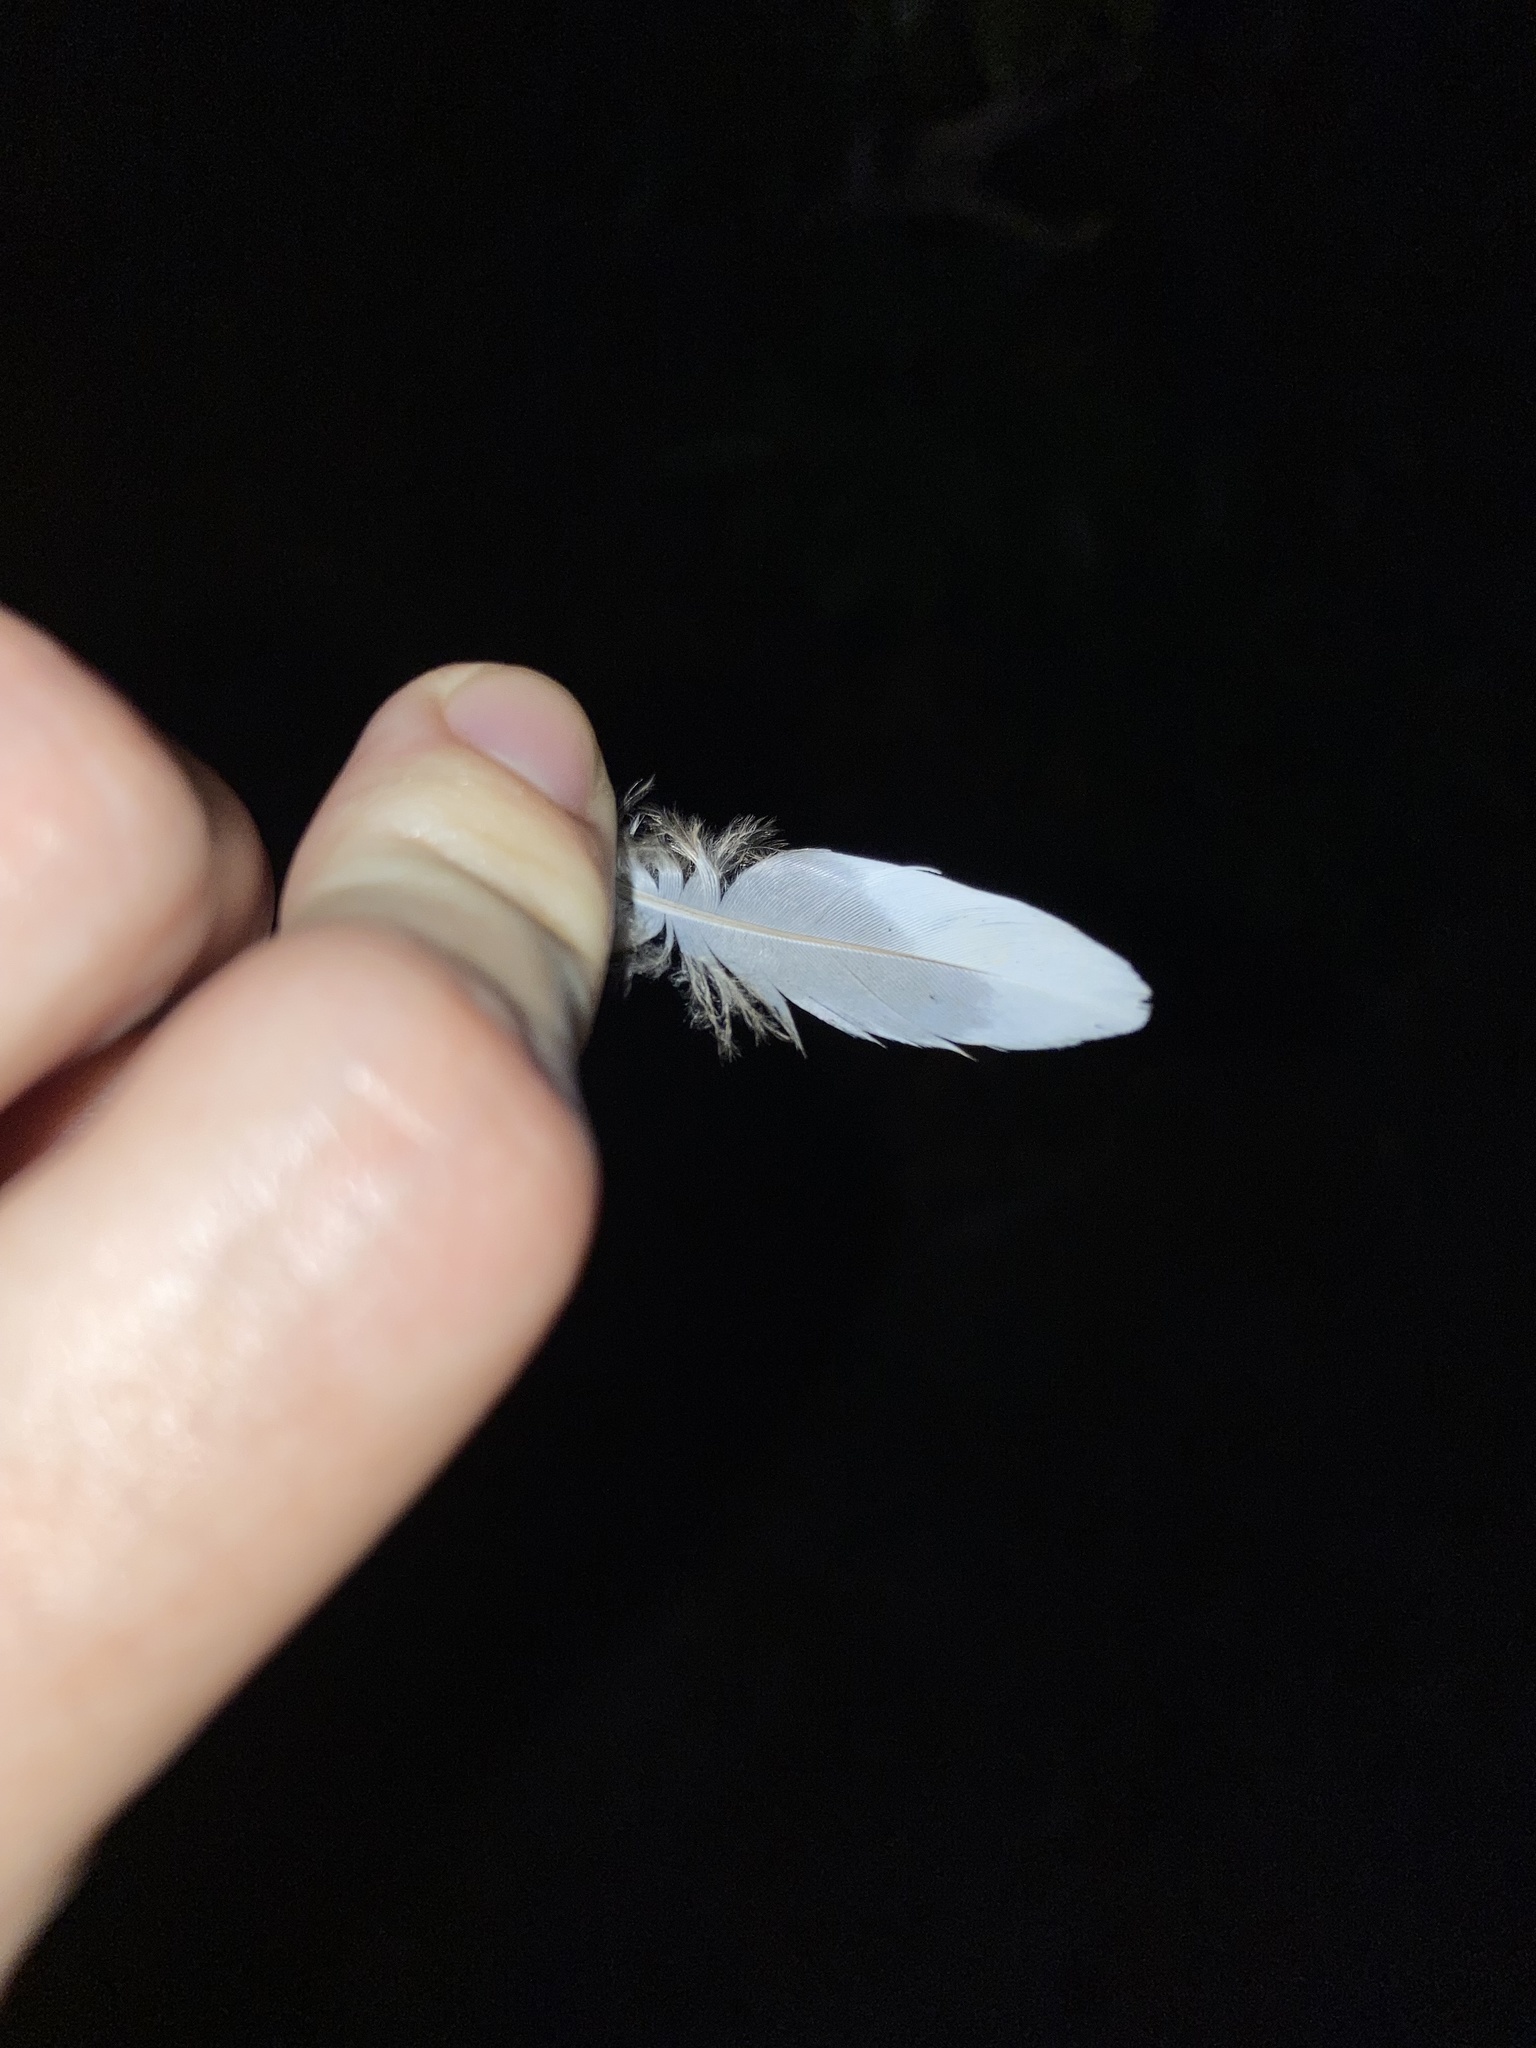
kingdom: Animalia
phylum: Chordata
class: Aves
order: Columbiformes
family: Columbidae
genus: Zenaida
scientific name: Zenaida asiatica
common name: White-winged dove
